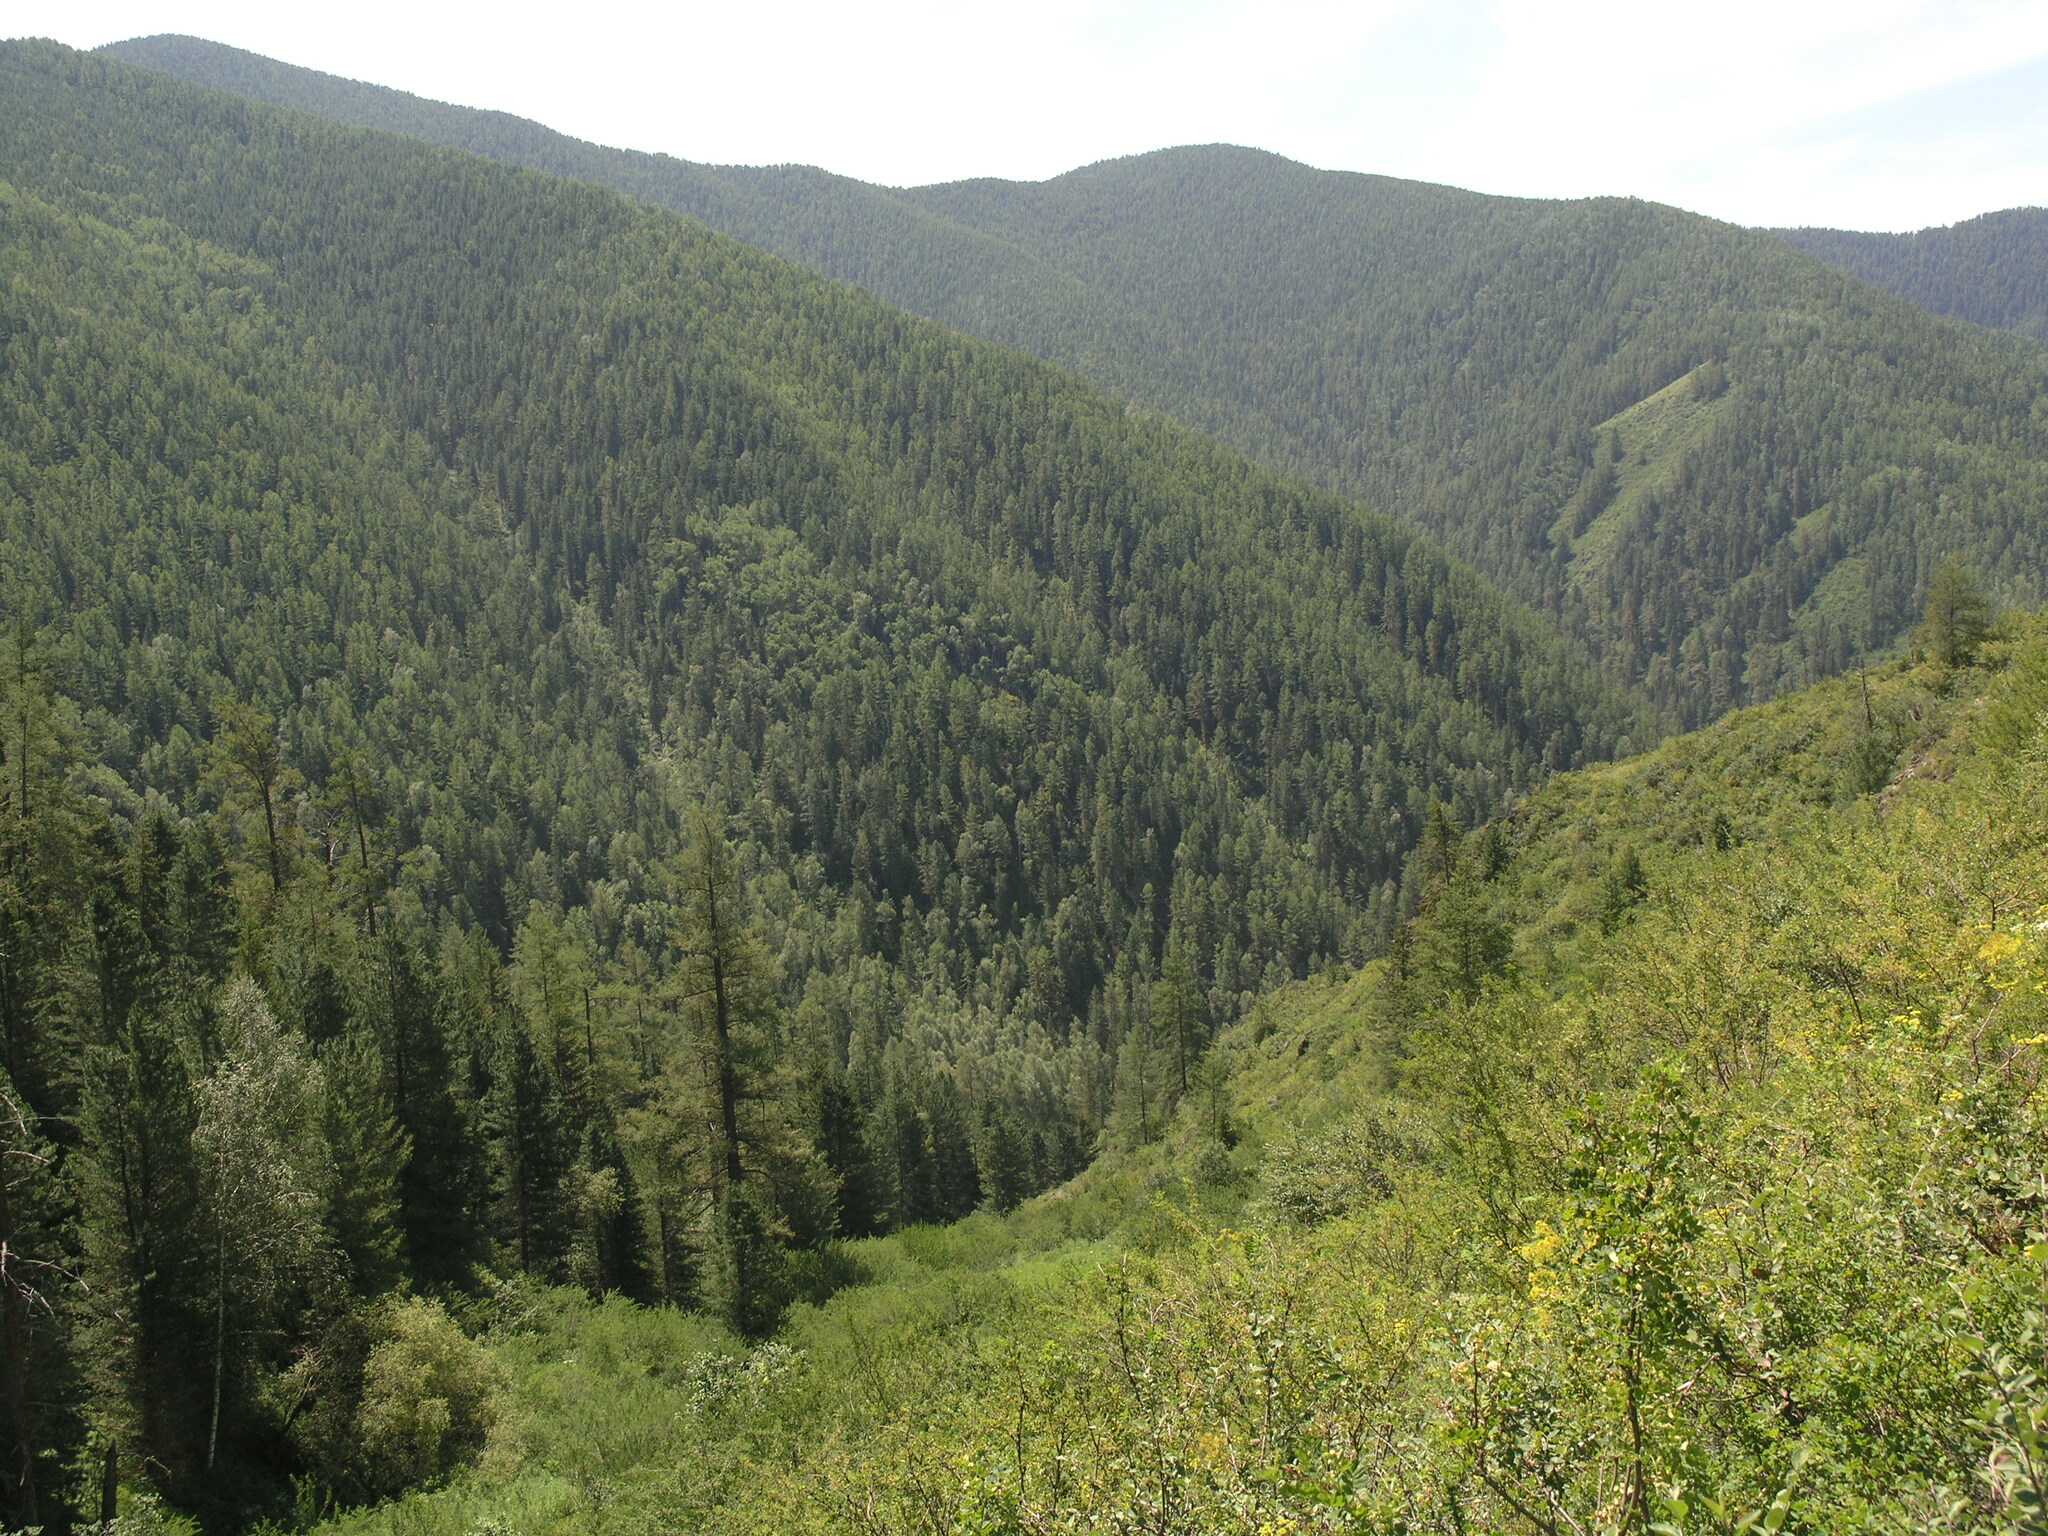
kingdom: Plantae
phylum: Tracheophyta
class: Magnoliopsida
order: Apiales
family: Apiaceae
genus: Ferula
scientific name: Ferula songarica
